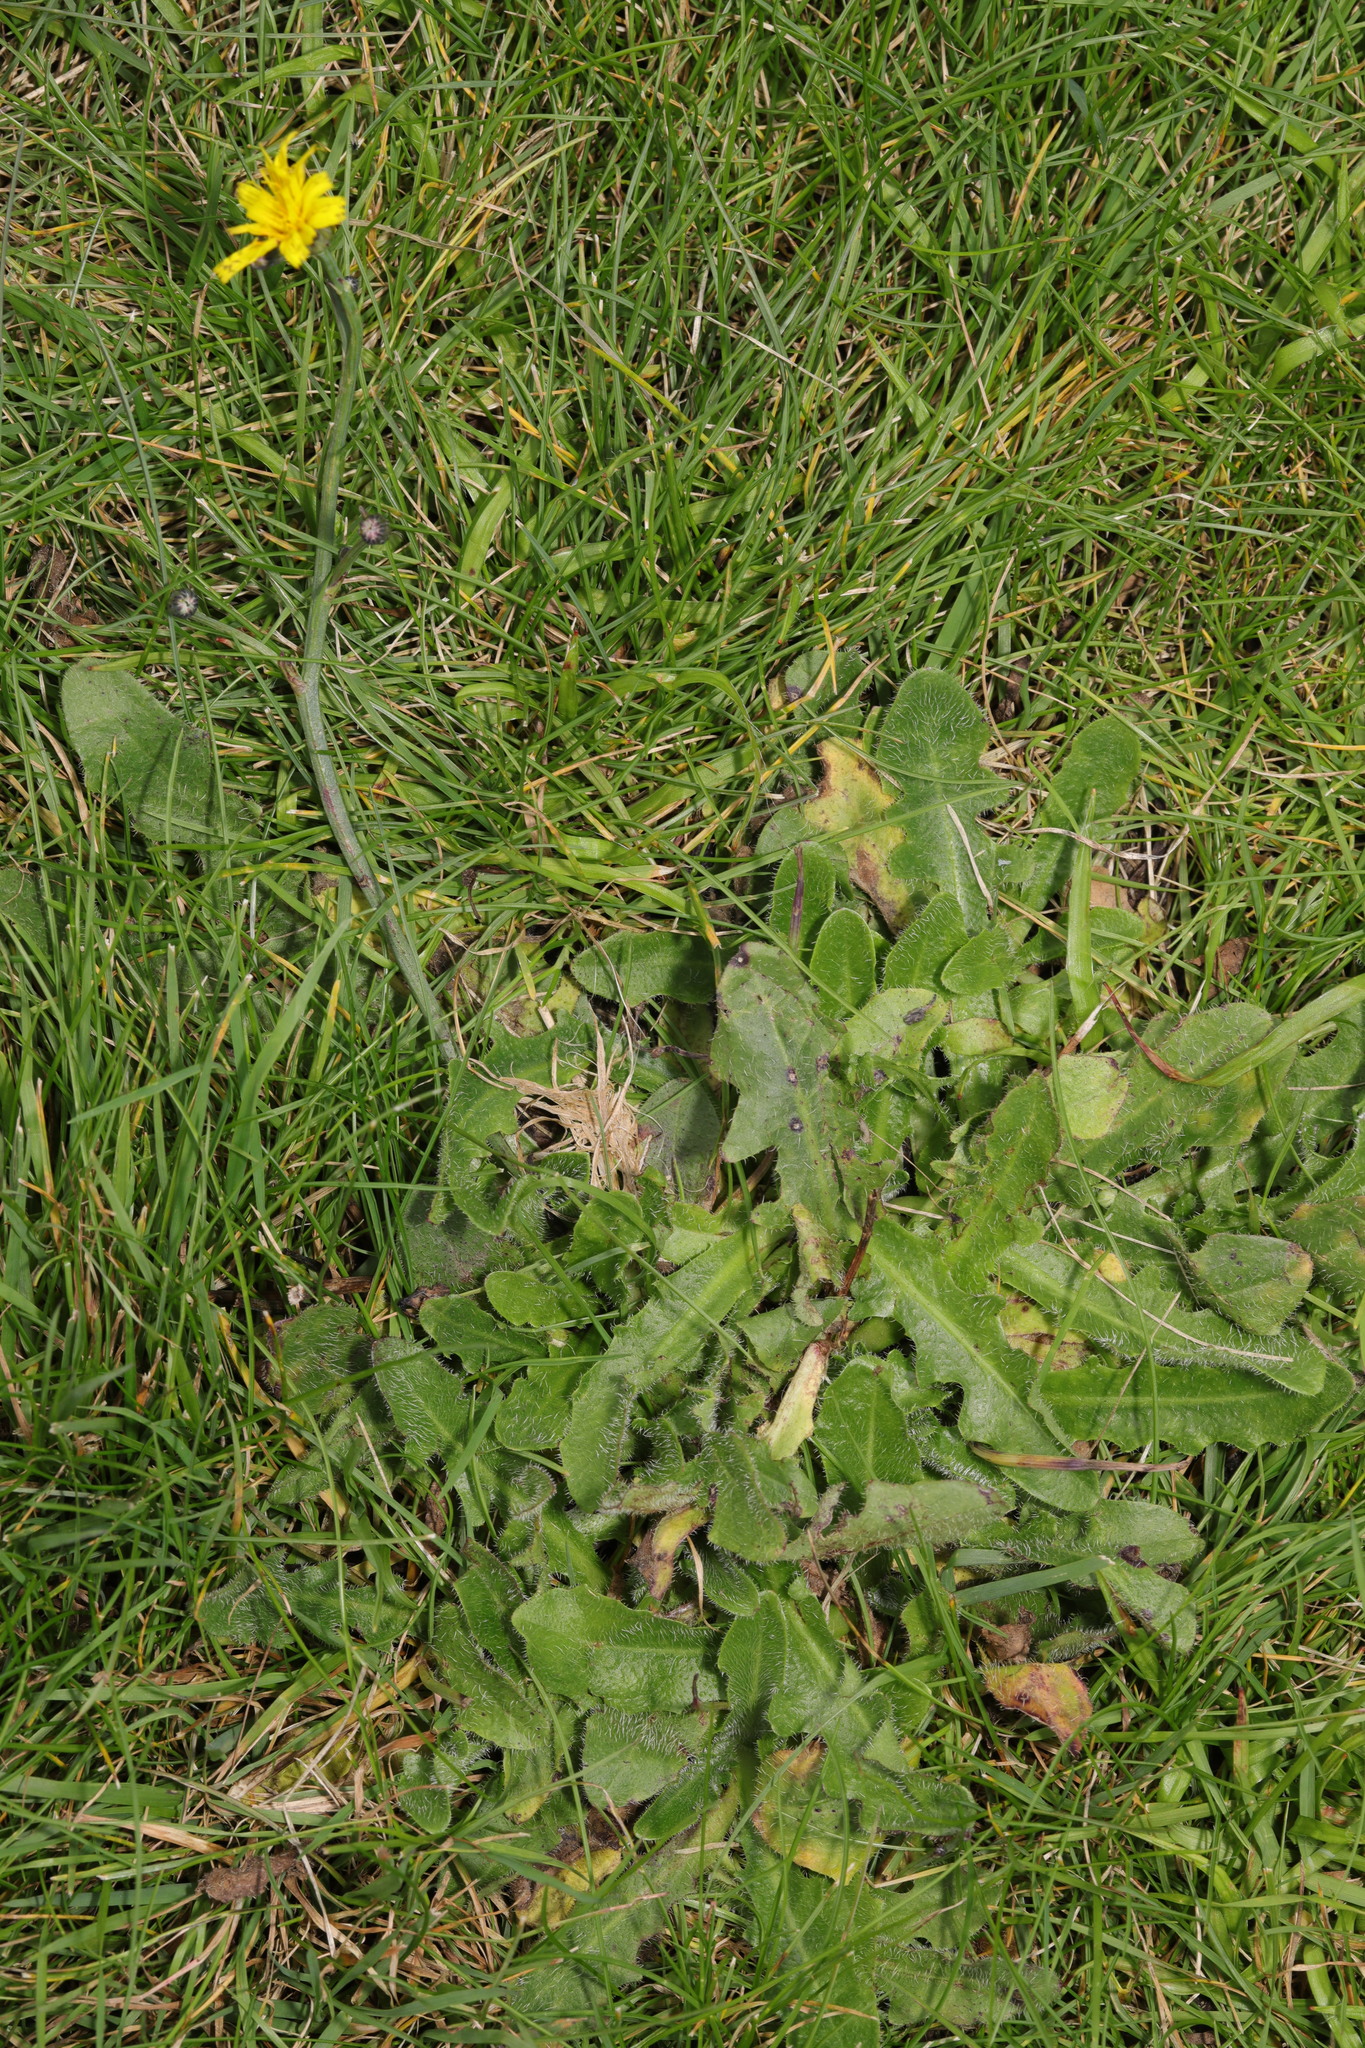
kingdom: Plantae
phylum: Tracheophyta
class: Magnoliopsida
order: Asterales
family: Asteraceae
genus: Hypochaeris
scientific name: Hypochaeris radicata
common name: Flatweed
